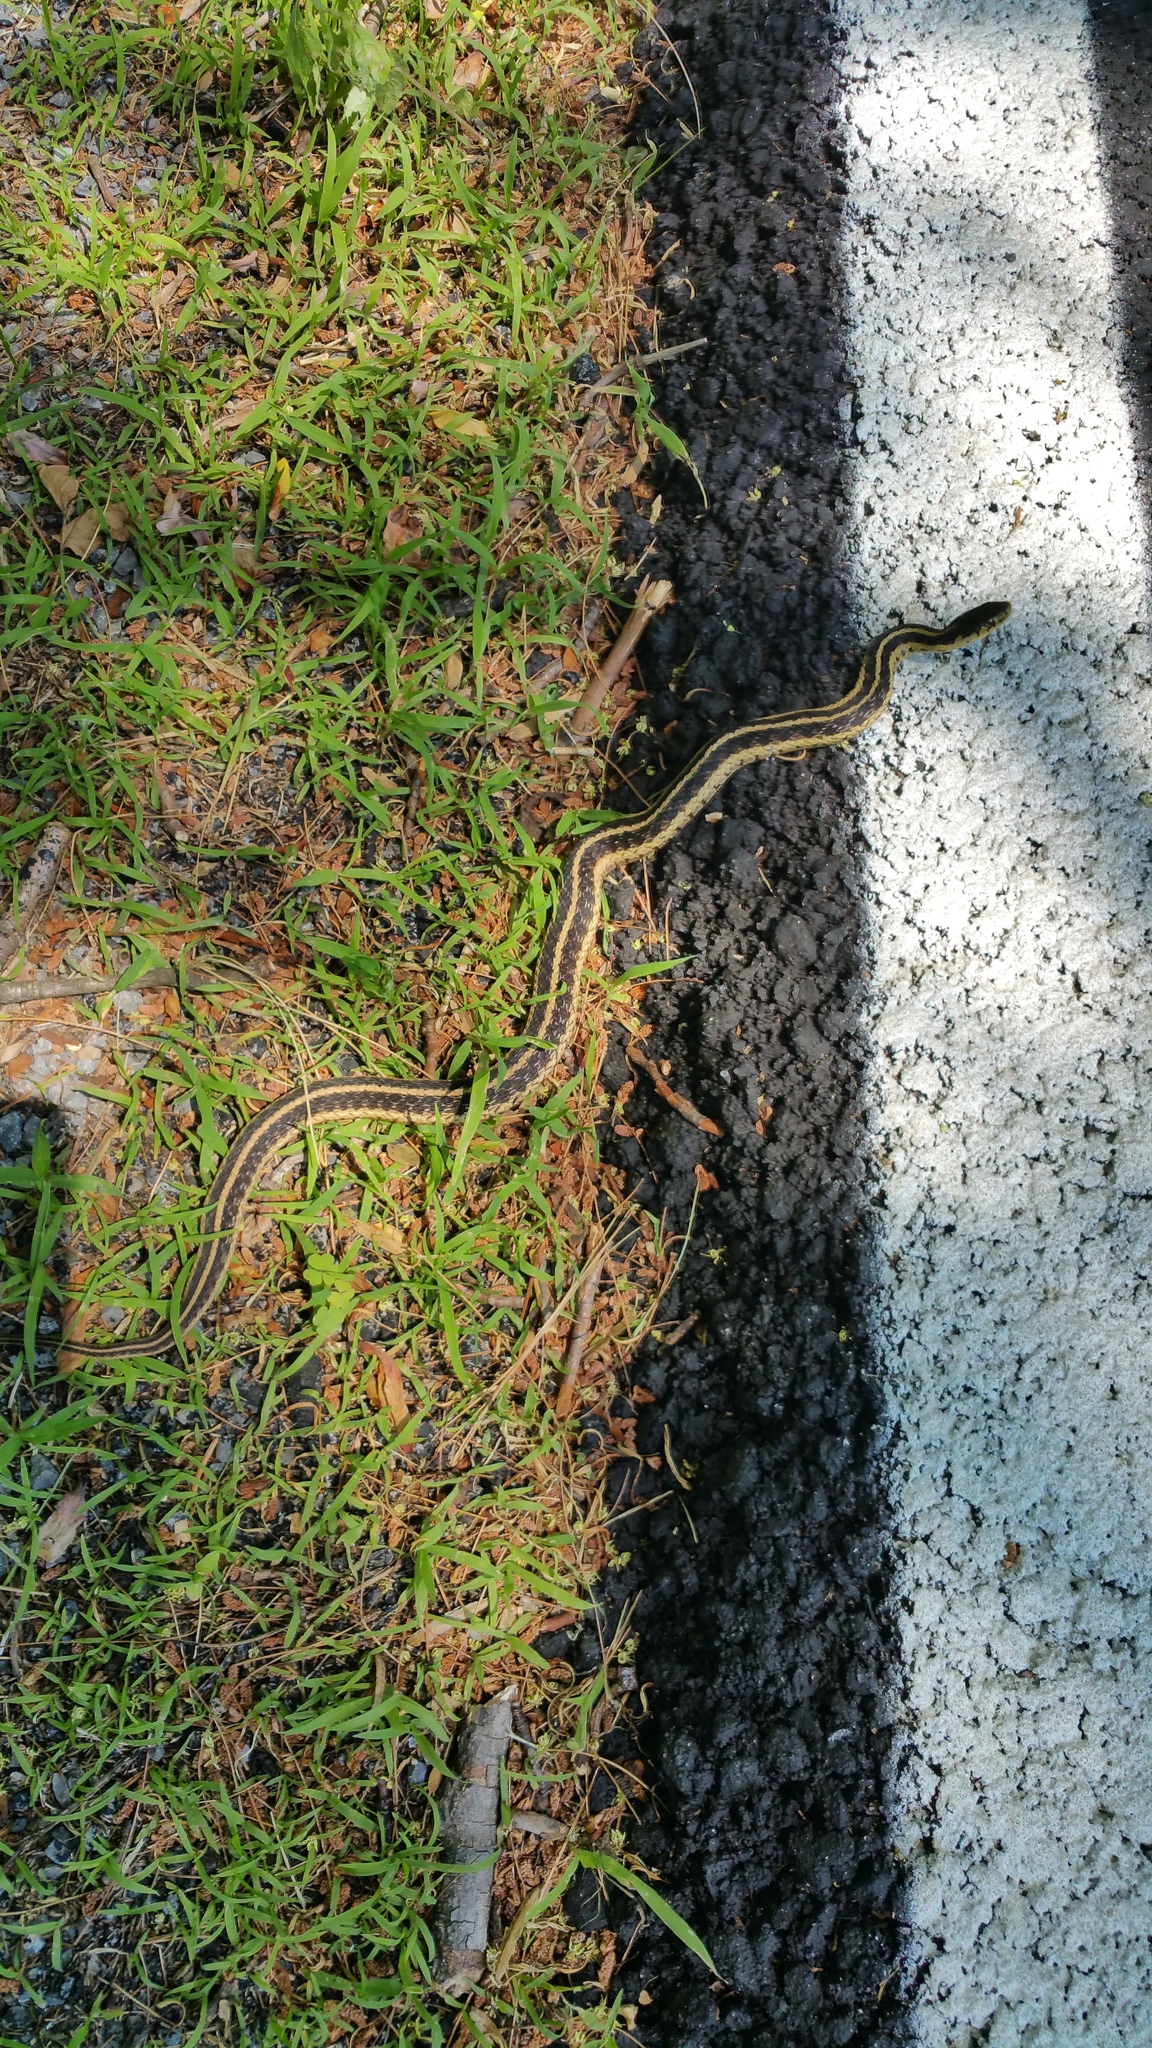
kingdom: Animalia
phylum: Chordata
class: Squamata
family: Colubridae
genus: Thamnophis
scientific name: Thamnophis sirtalis
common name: Common garter snake
